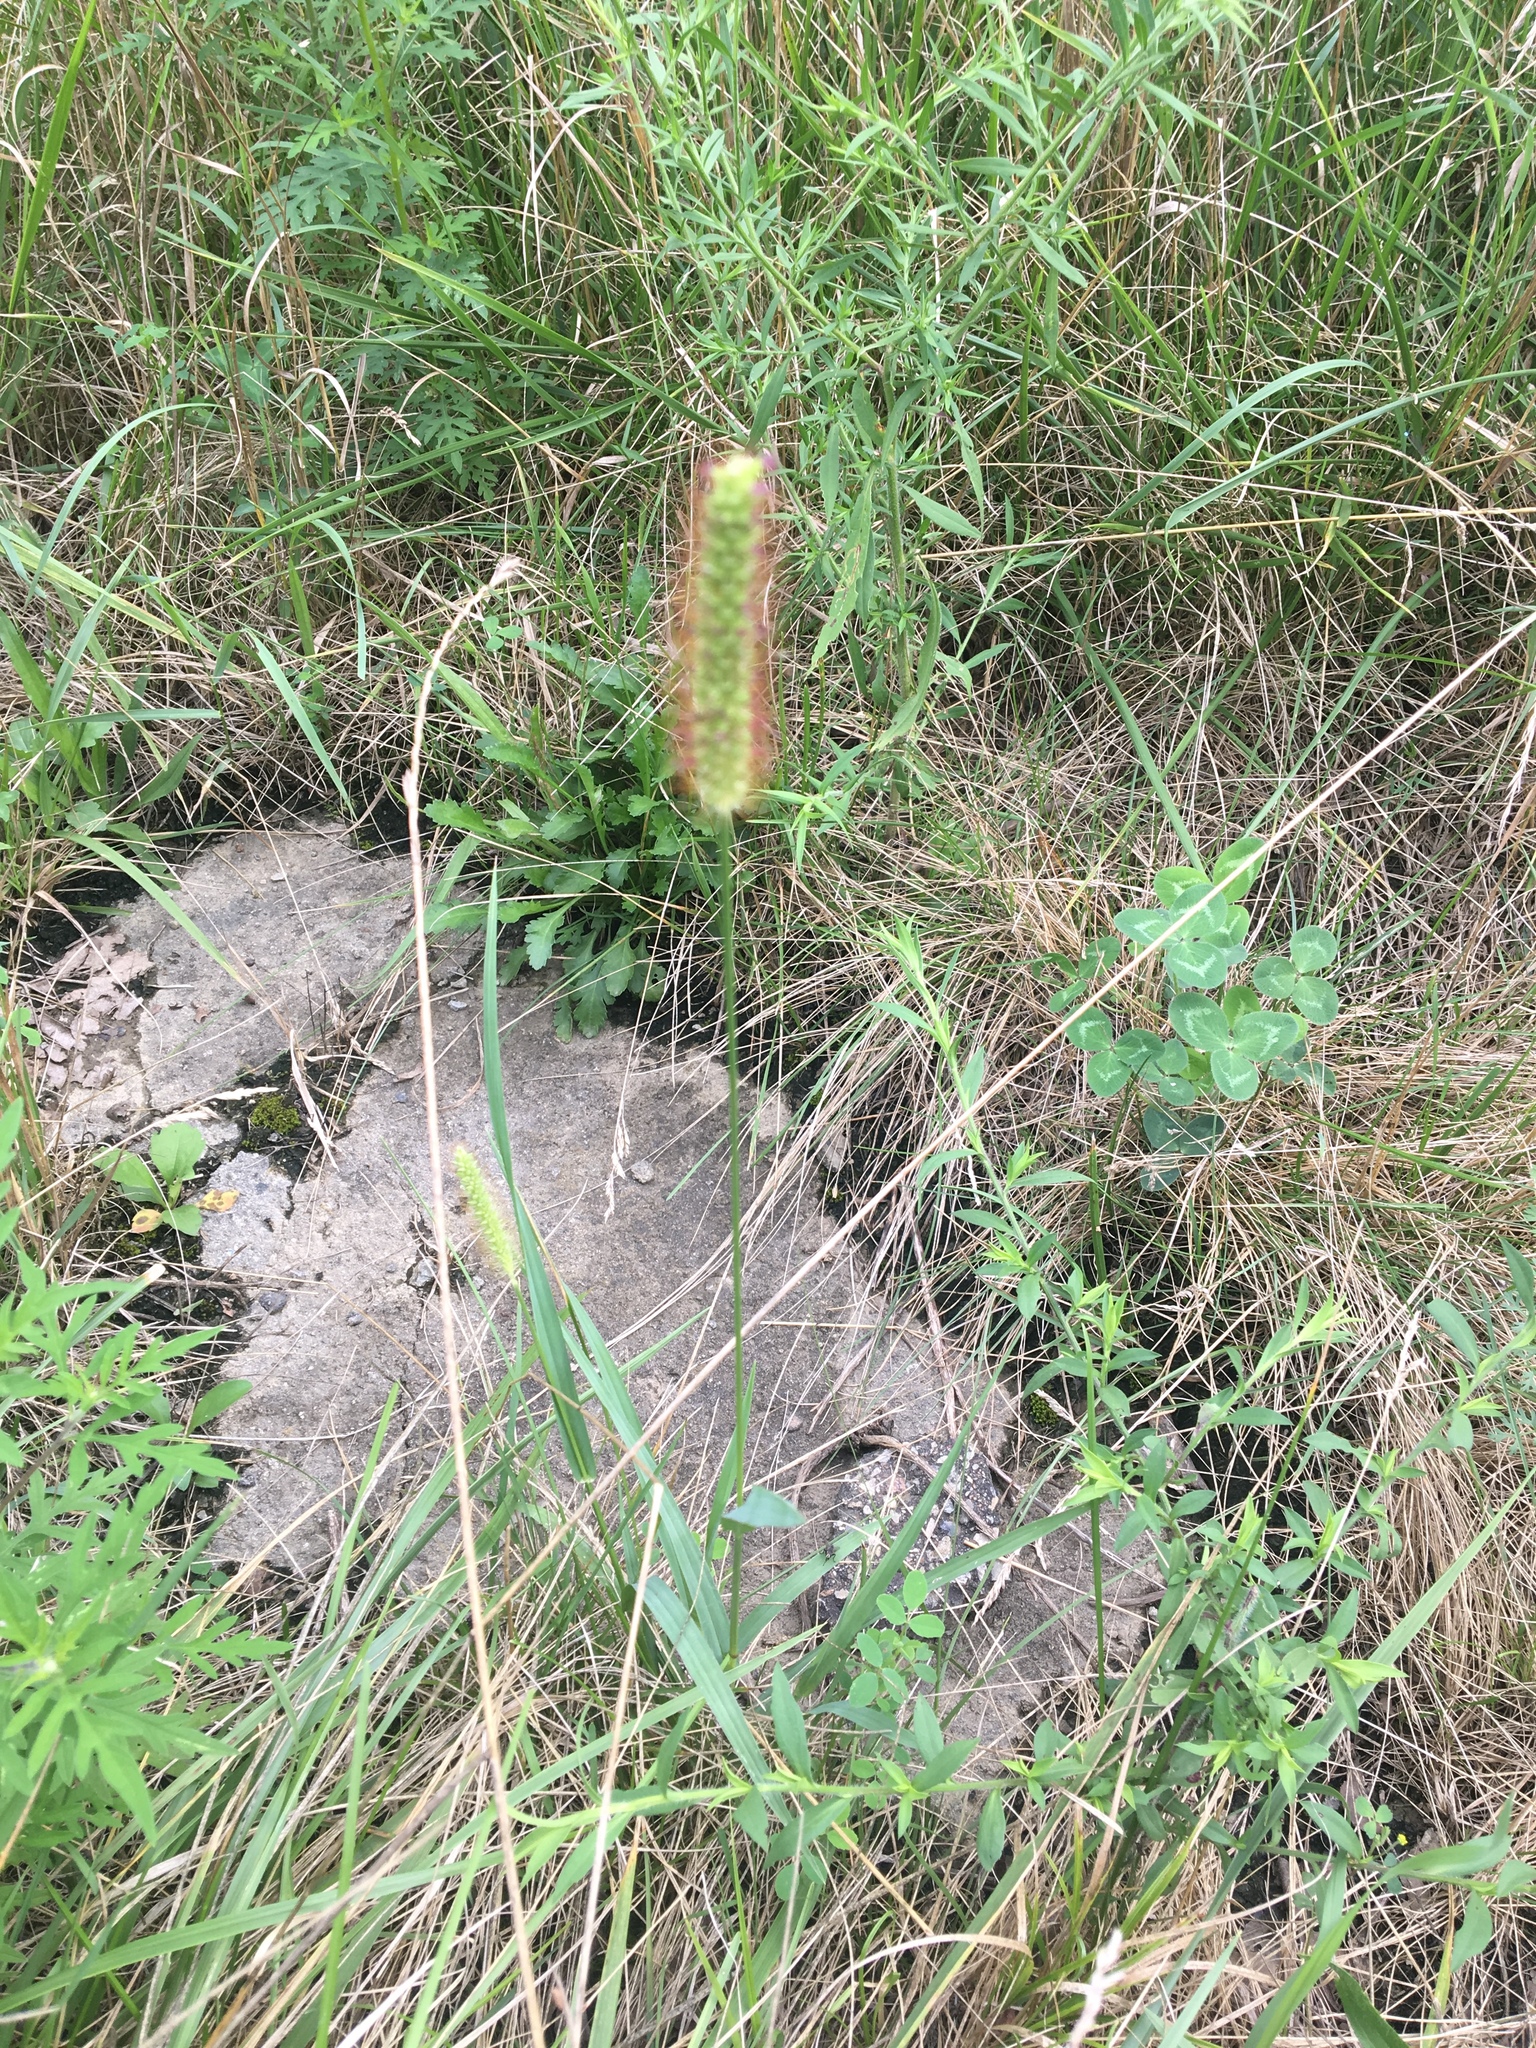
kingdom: Plantae
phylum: Tracheophyta
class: Liliopsida
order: Poales
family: Poaceae
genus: Setaria
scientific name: Setaria pumila
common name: Yellow bristle-grass
